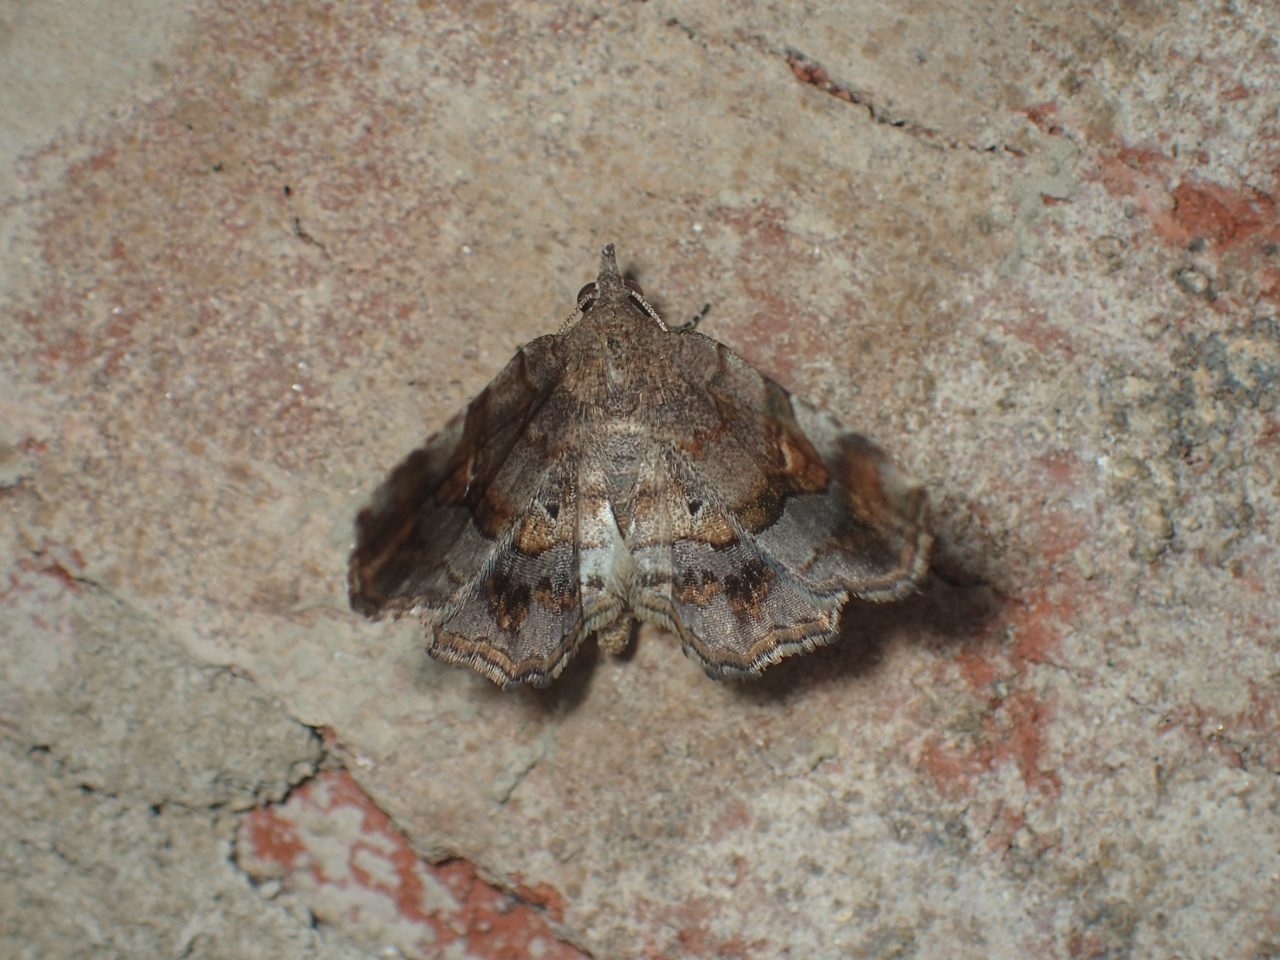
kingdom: Animalia
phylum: Arthropoda
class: Insecta
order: Lepidoptera
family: Erebidae
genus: Pangrapta
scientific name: Pangrapta decoralis
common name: Decorated owlet
